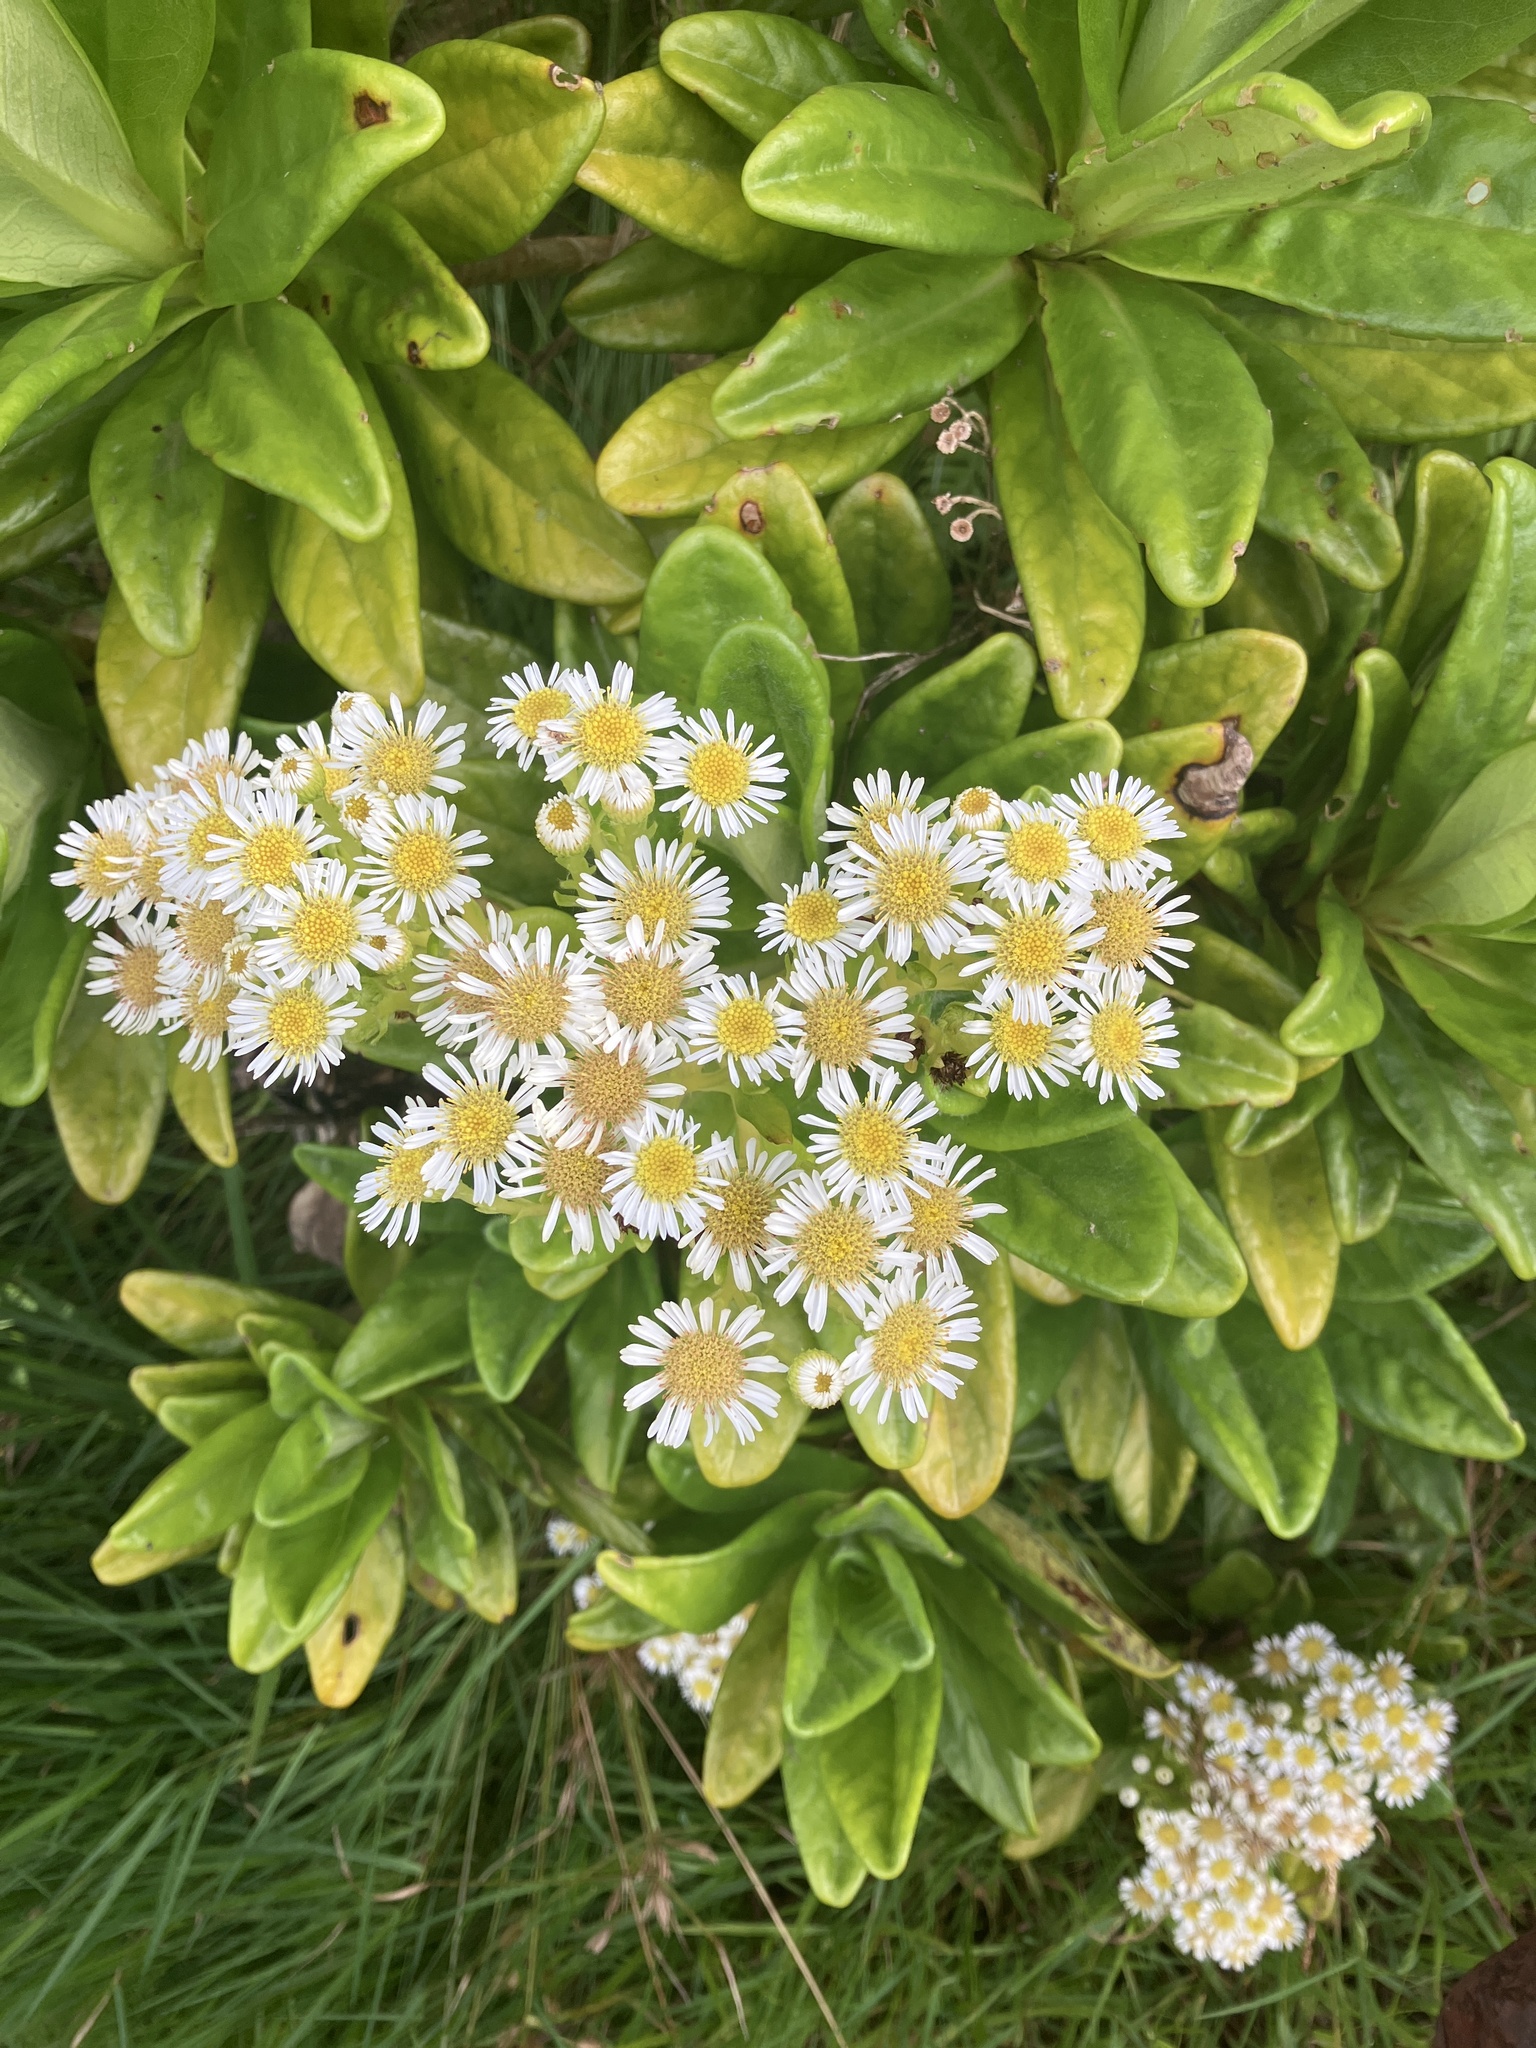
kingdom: Plantae
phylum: Tracheophyta
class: Magnoliopsida
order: Asterales
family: Asteraceae
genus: Melanodendron
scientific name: Melanodendron integrifolium
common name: Black cabbage tree
